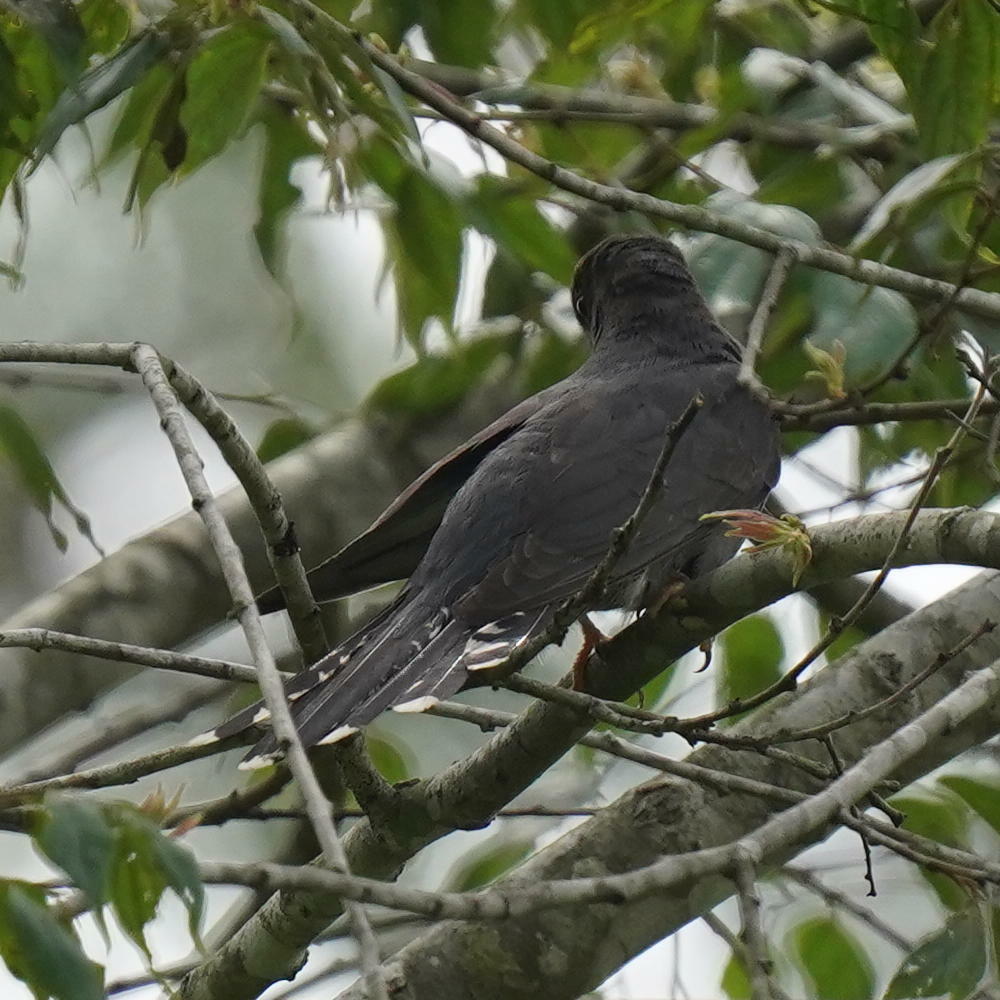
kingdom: Animalia
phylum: Chordata
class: Aves
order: Cuculiformes
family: Cuculidae
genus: Cacomantis
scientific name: Cacomantis passerinus
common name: Grey-bellied cuckoo
